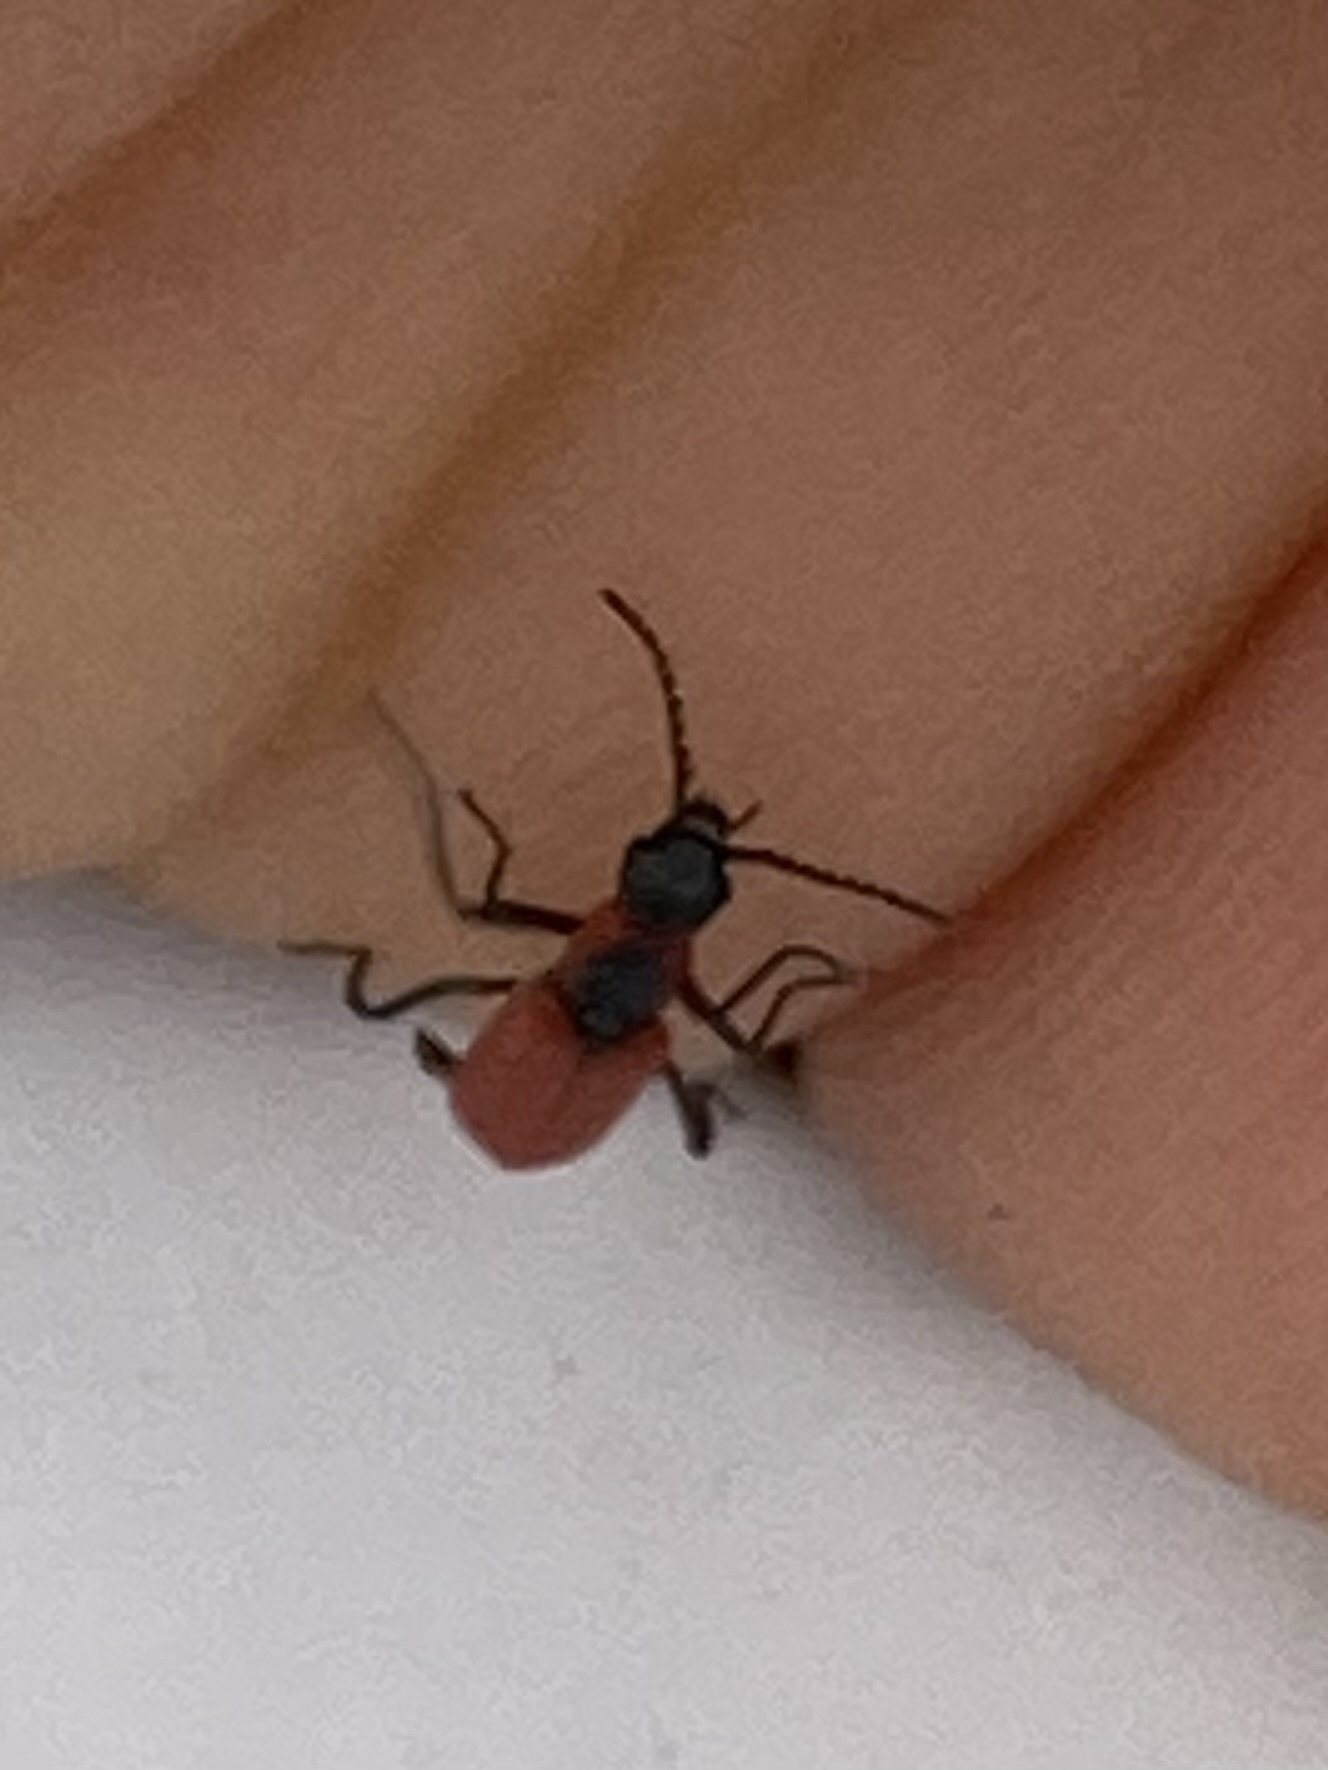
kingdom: Animalia
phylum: Arthropoda
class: Insecta
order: Coleoptera
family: Melyridae
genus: Anthocomus
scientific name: Anthocomus rufus
